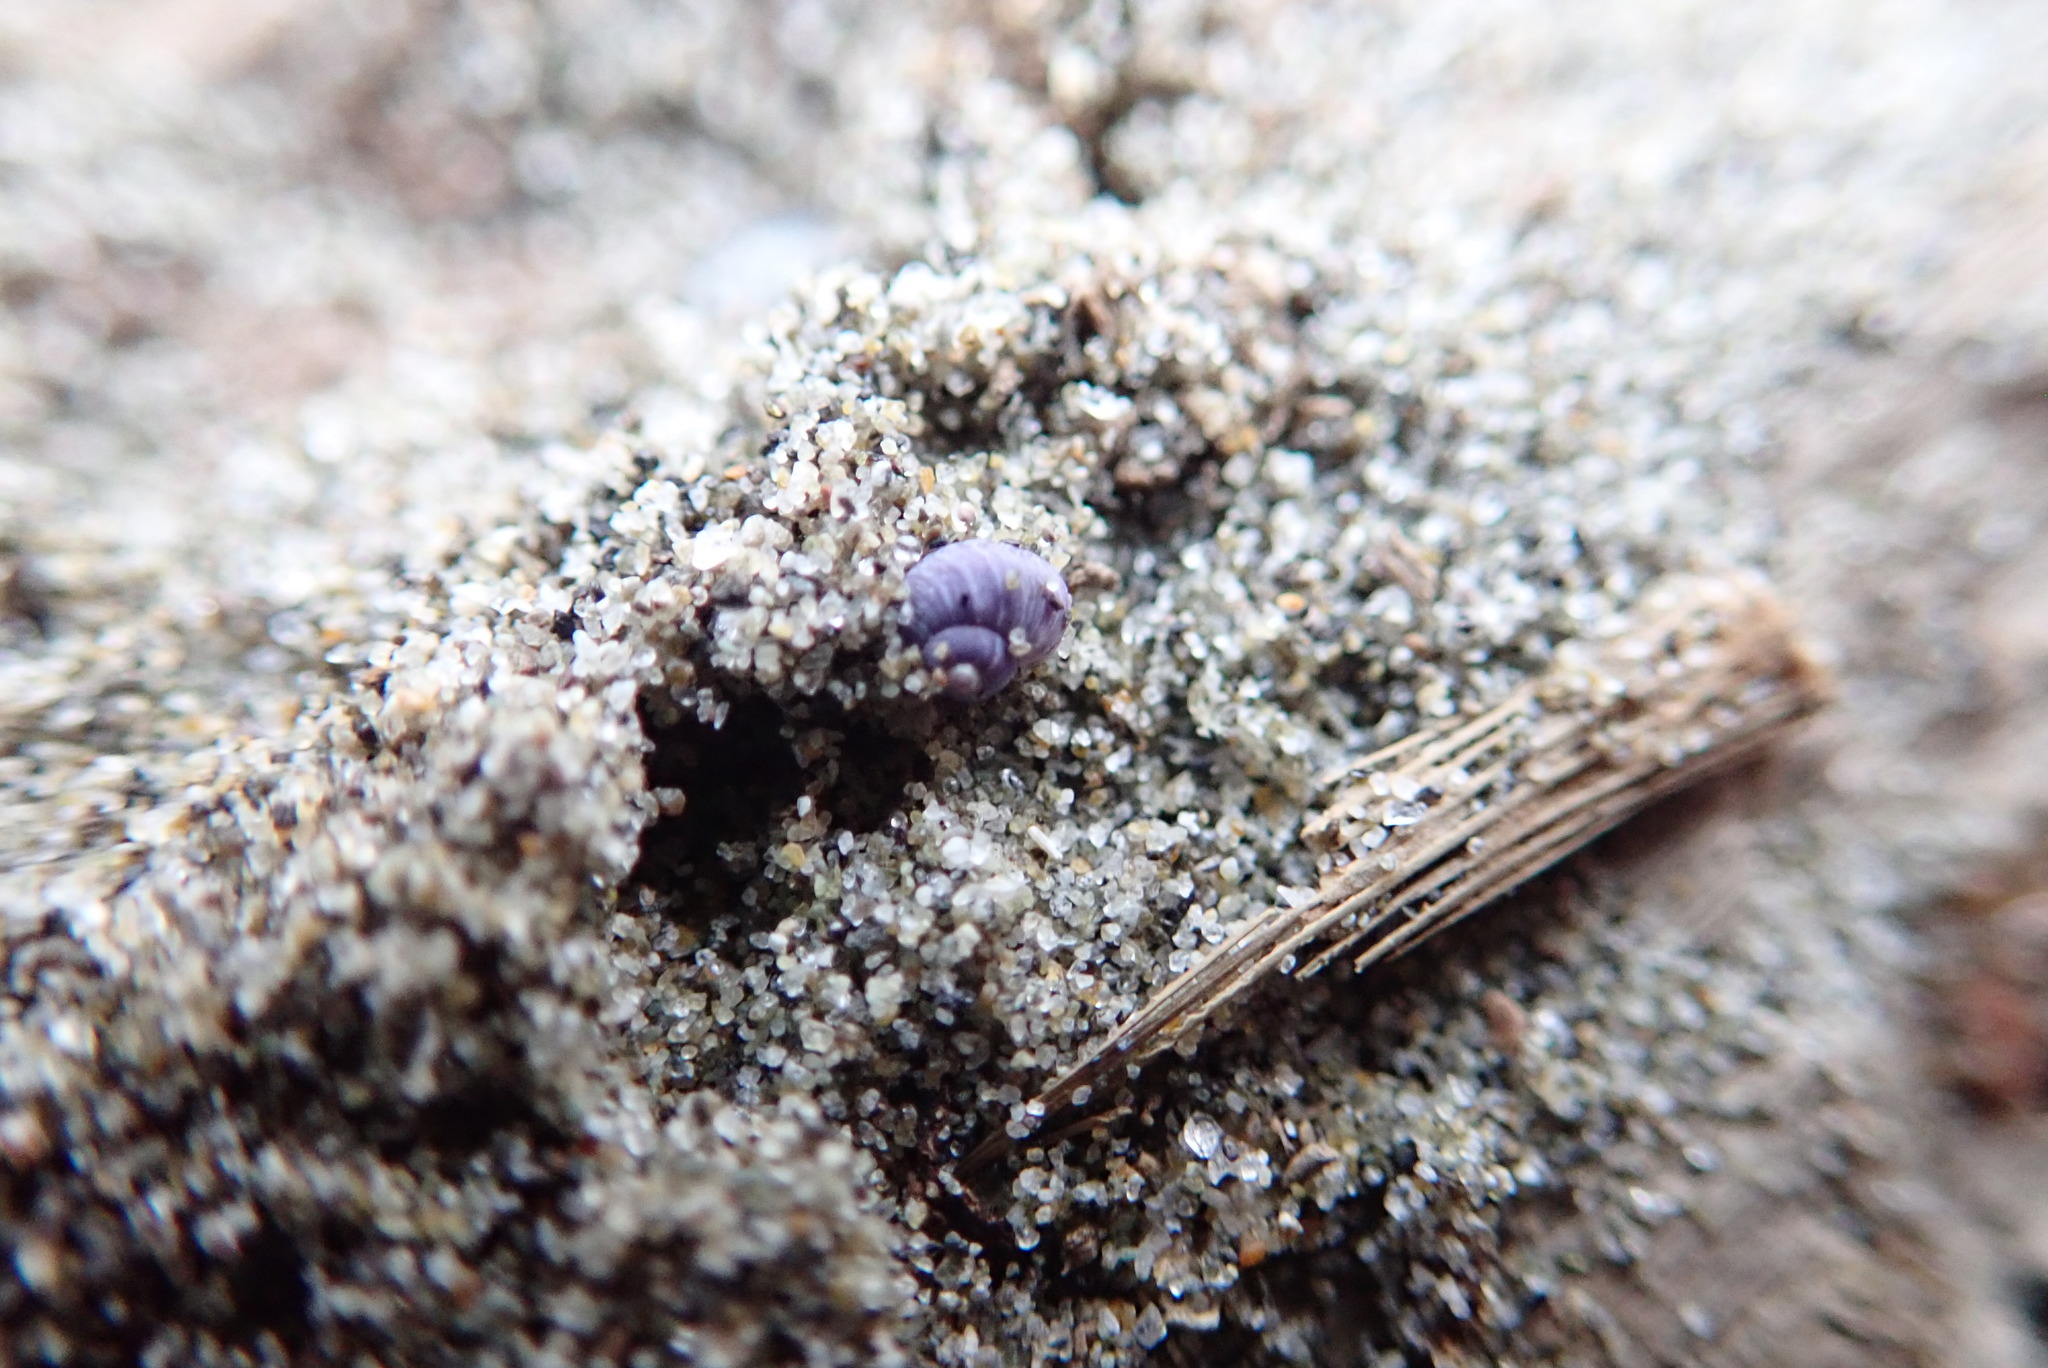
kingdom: Animalia
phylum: Mollusca
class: Gastropoda
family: Epitoniidae
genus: Janthina
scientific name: Janthina exigua
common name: Dwarf janthina
